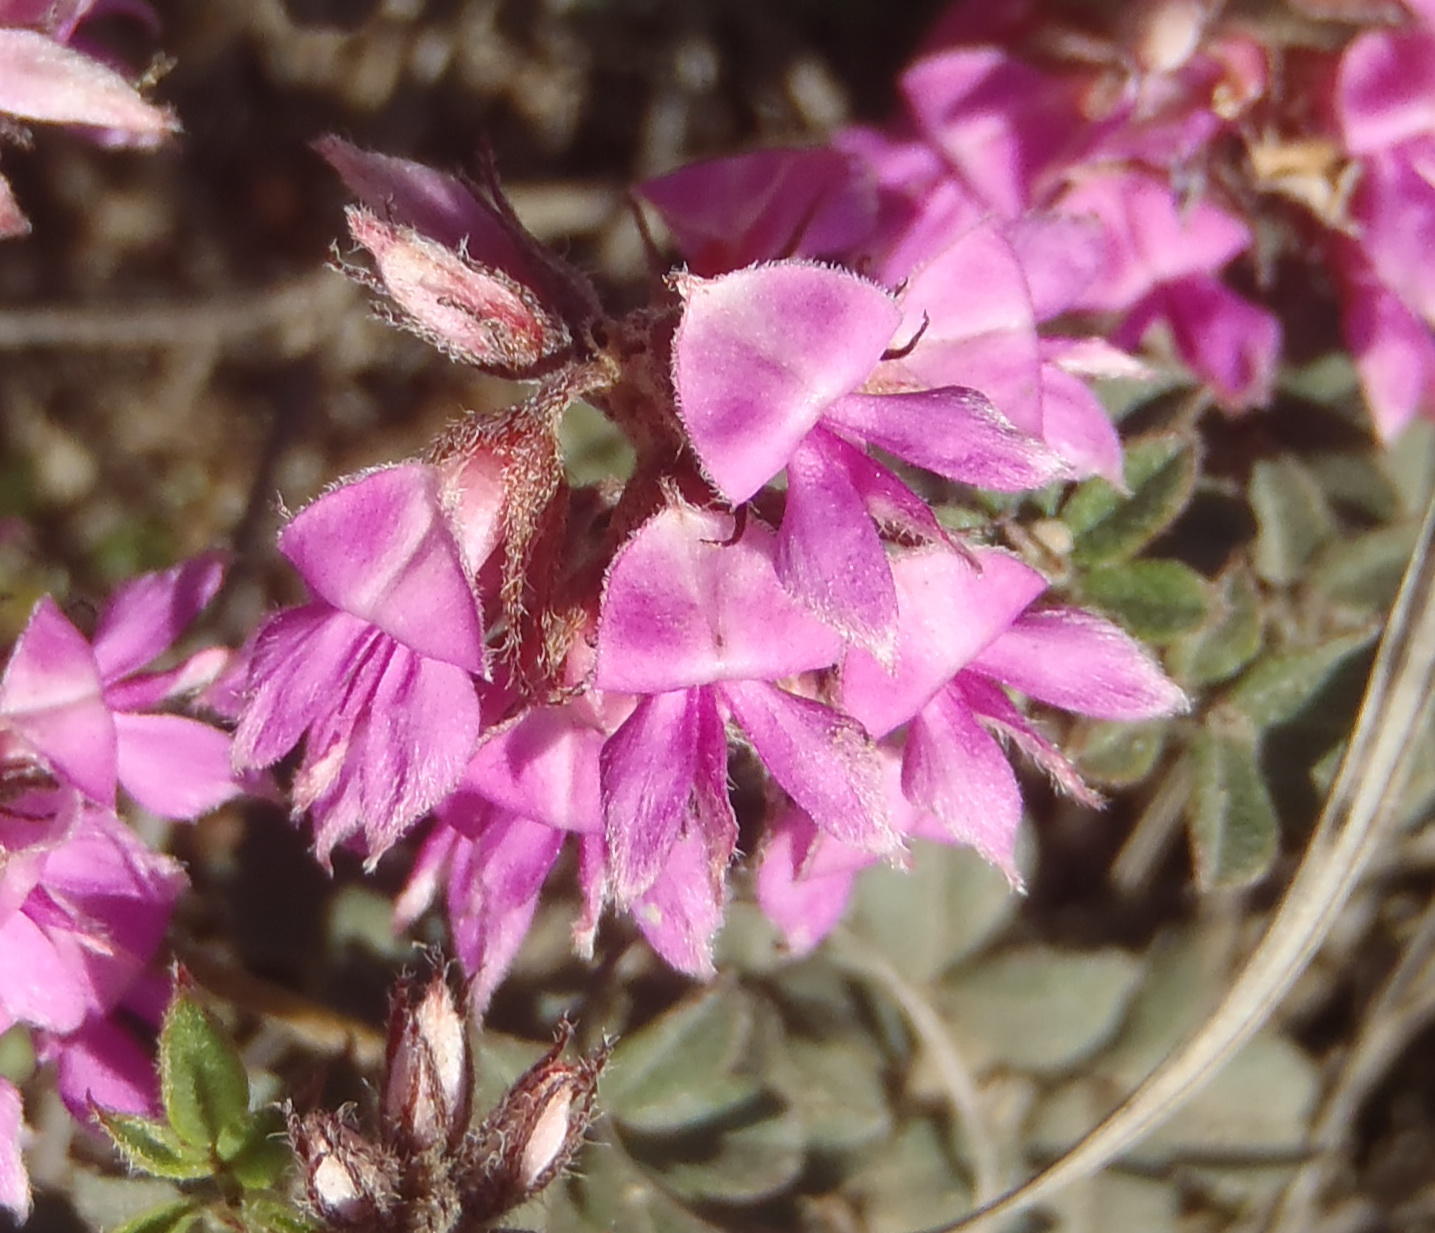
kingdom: Plantae
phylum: Tracheophyta
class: Magnoliopsida
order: Fabales
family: Fabaceae
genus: Indigofera
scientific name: Indigofera mauritanica
